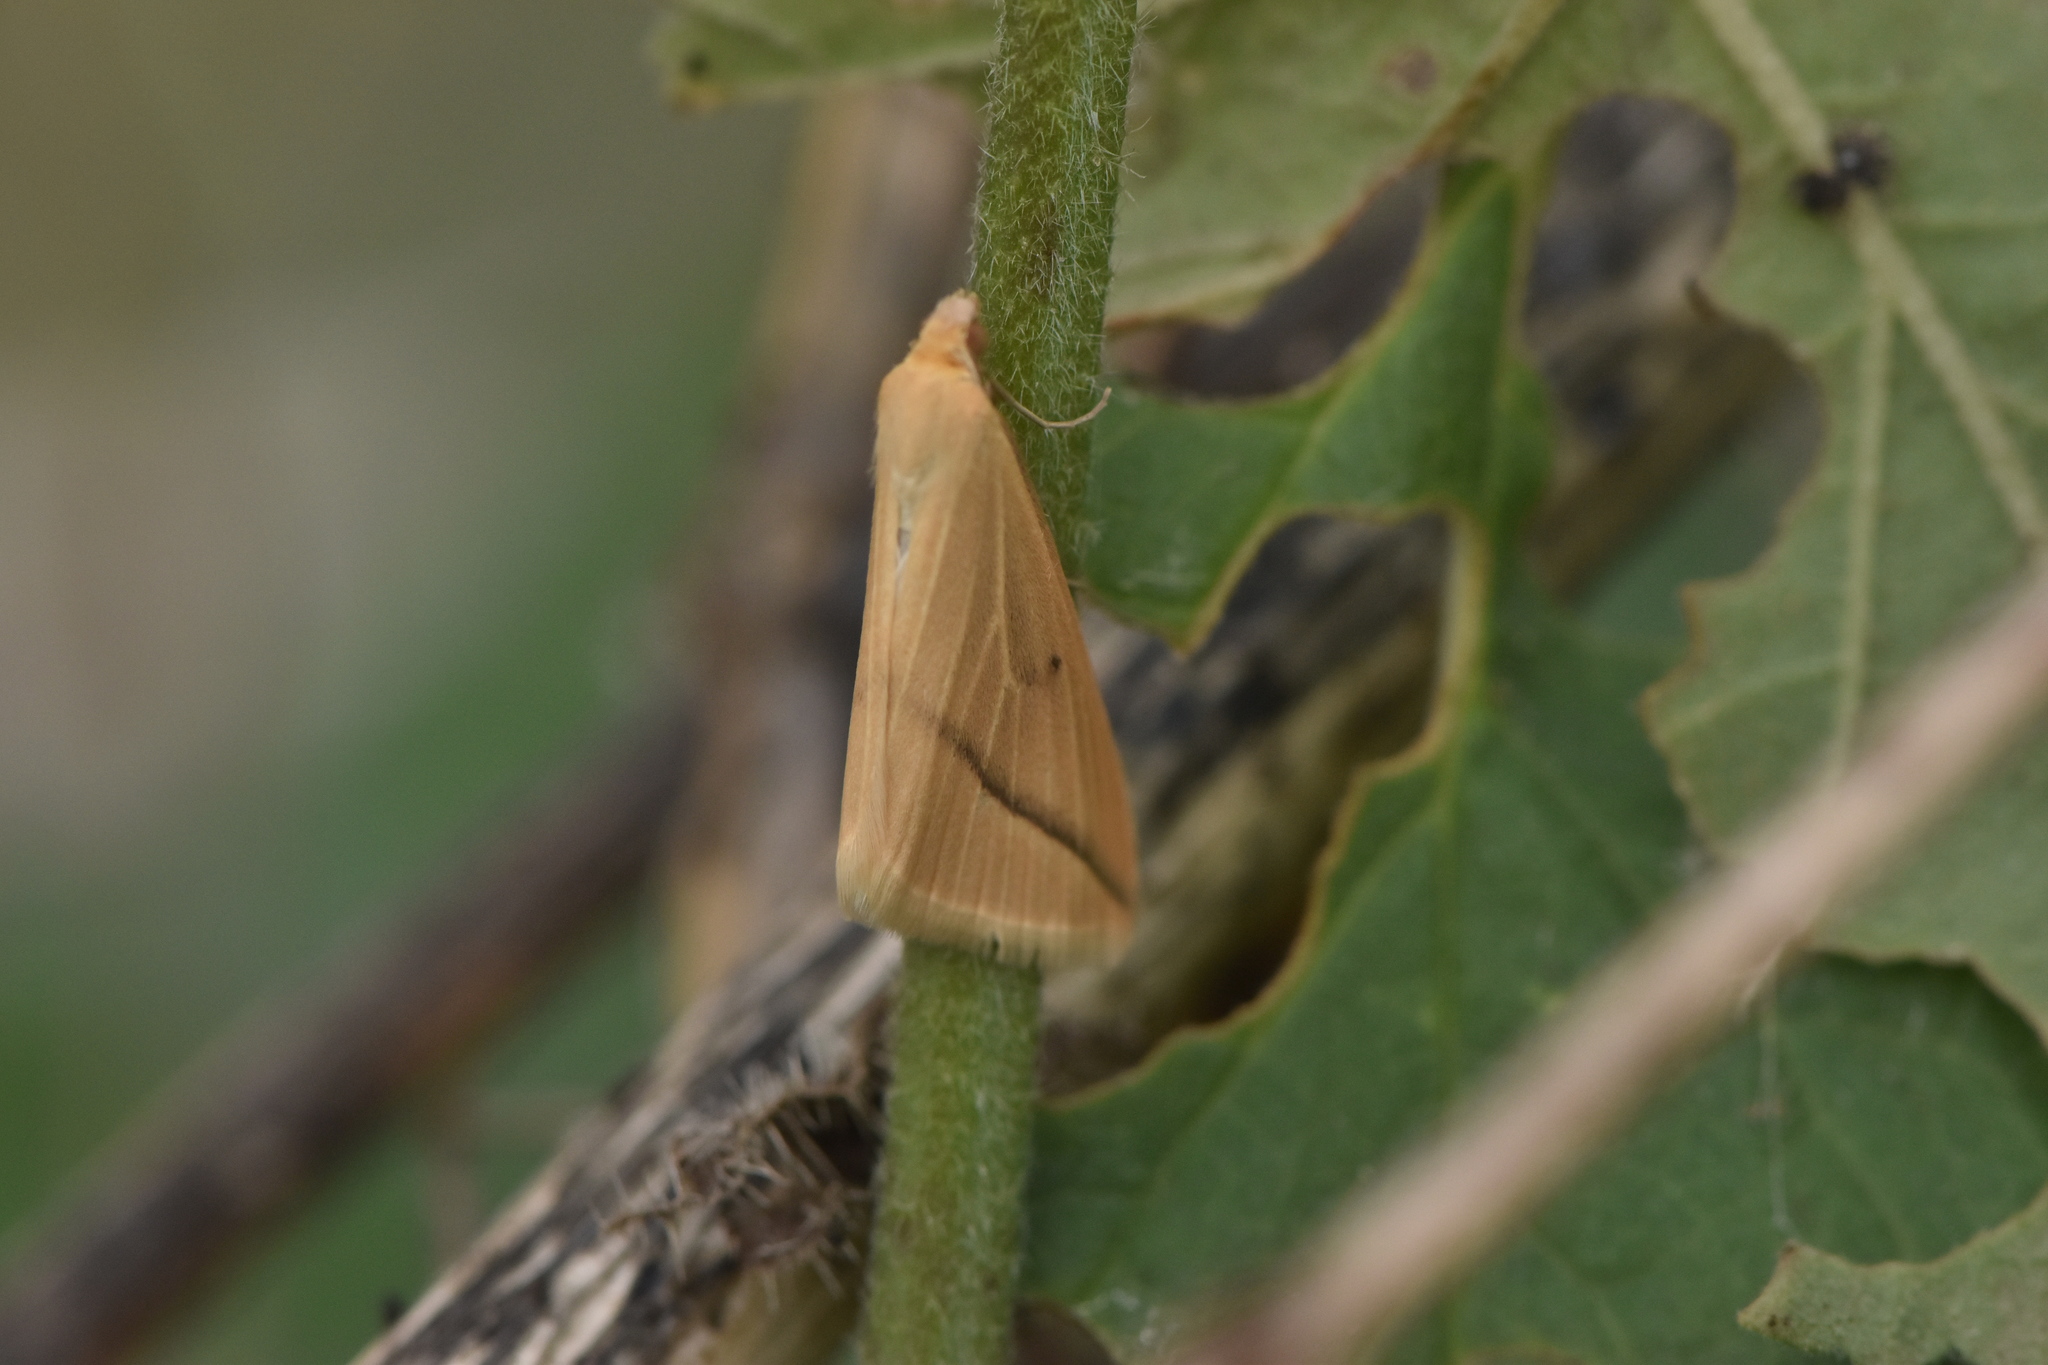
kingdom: Animalia
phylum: Arthropoda
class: Insecta
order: Lepidoptera
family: Geometridae
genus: Rhodometra
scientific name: Rhodometra sacraria
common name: Vestal
